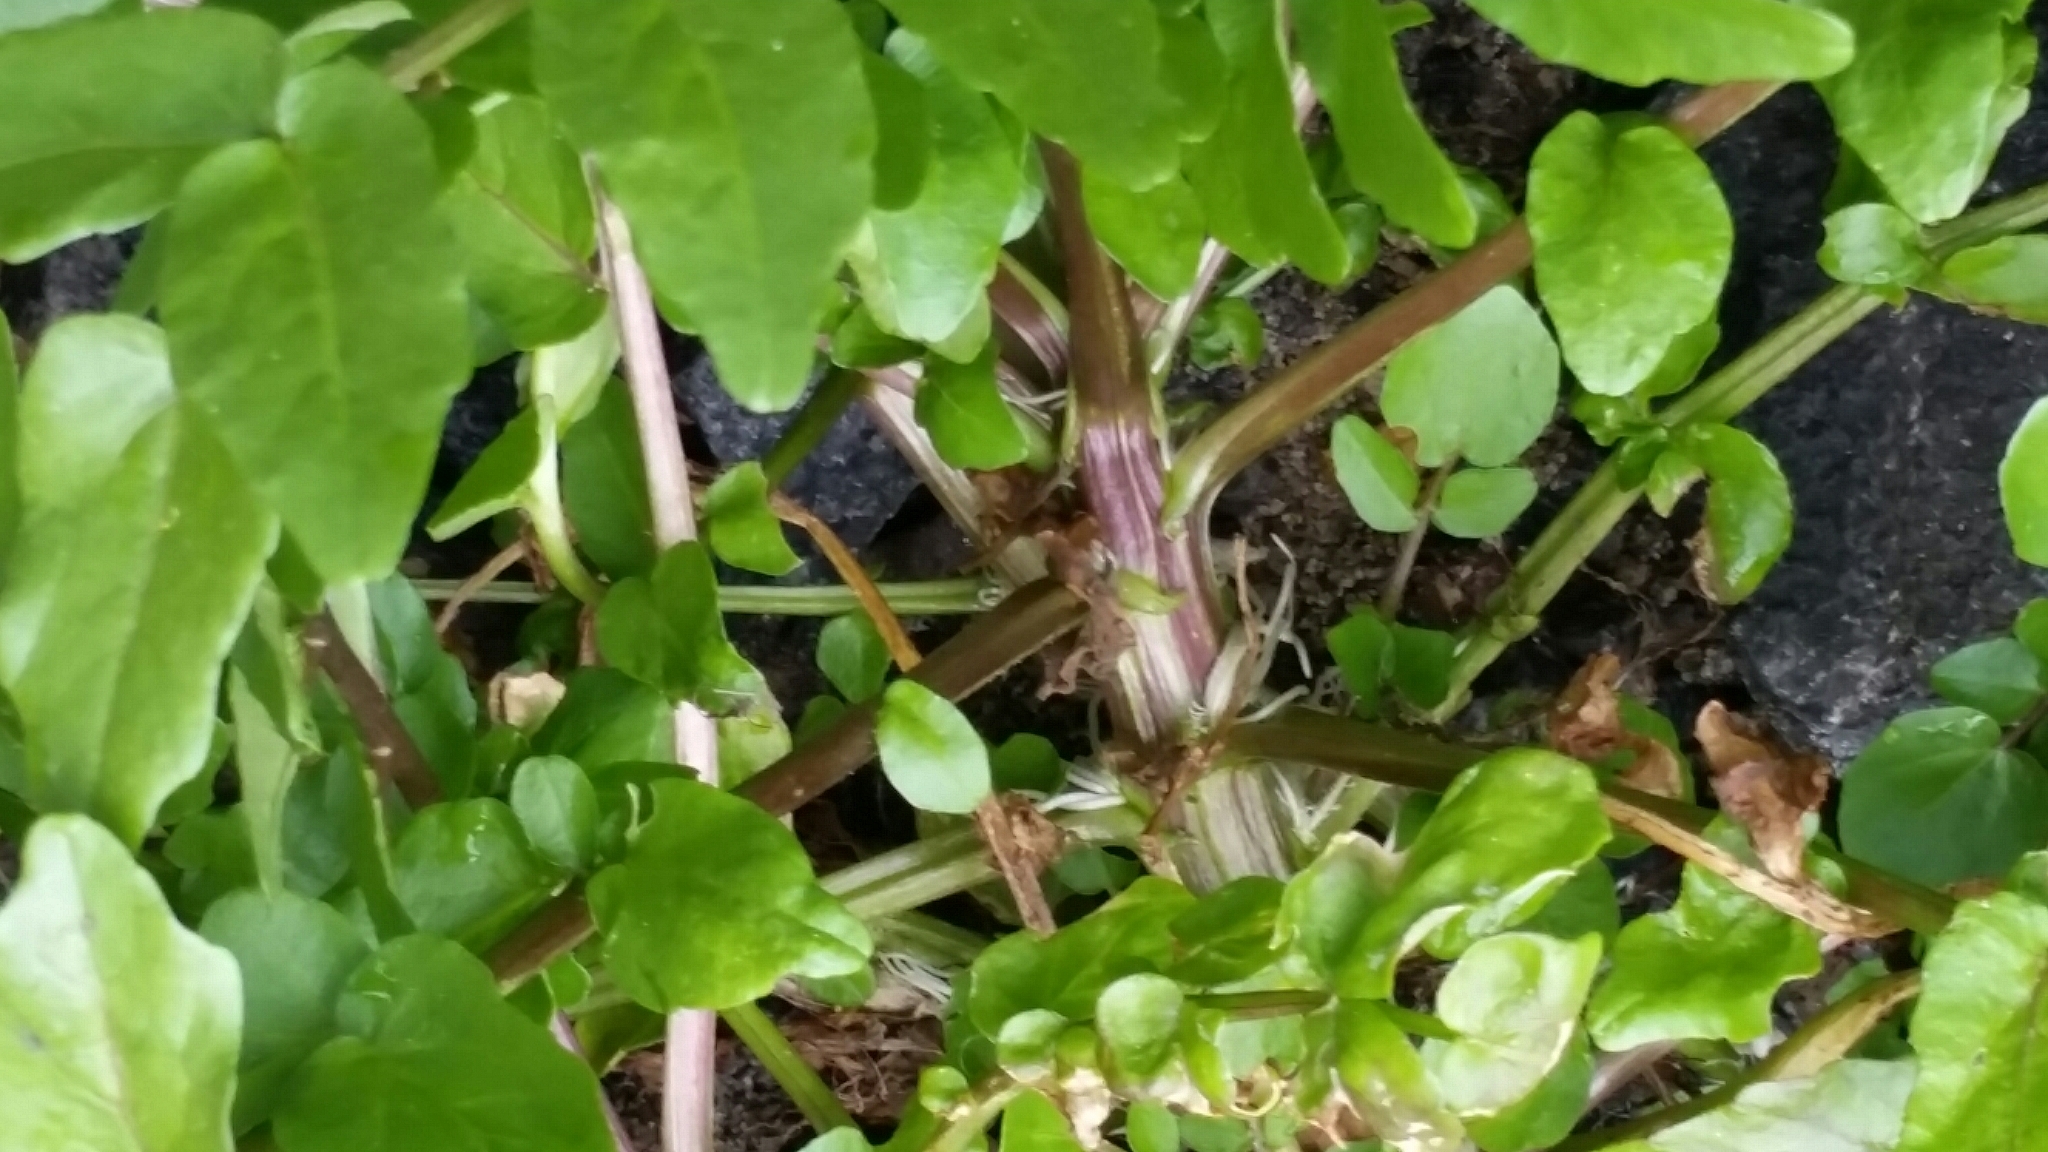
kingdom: Plantae
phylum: Tracheophyta
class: Magnoliopsida
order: Brassicales
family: Brassicaceae
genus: Nasturtium
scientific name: Nasturtium officinale
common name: Watercress
